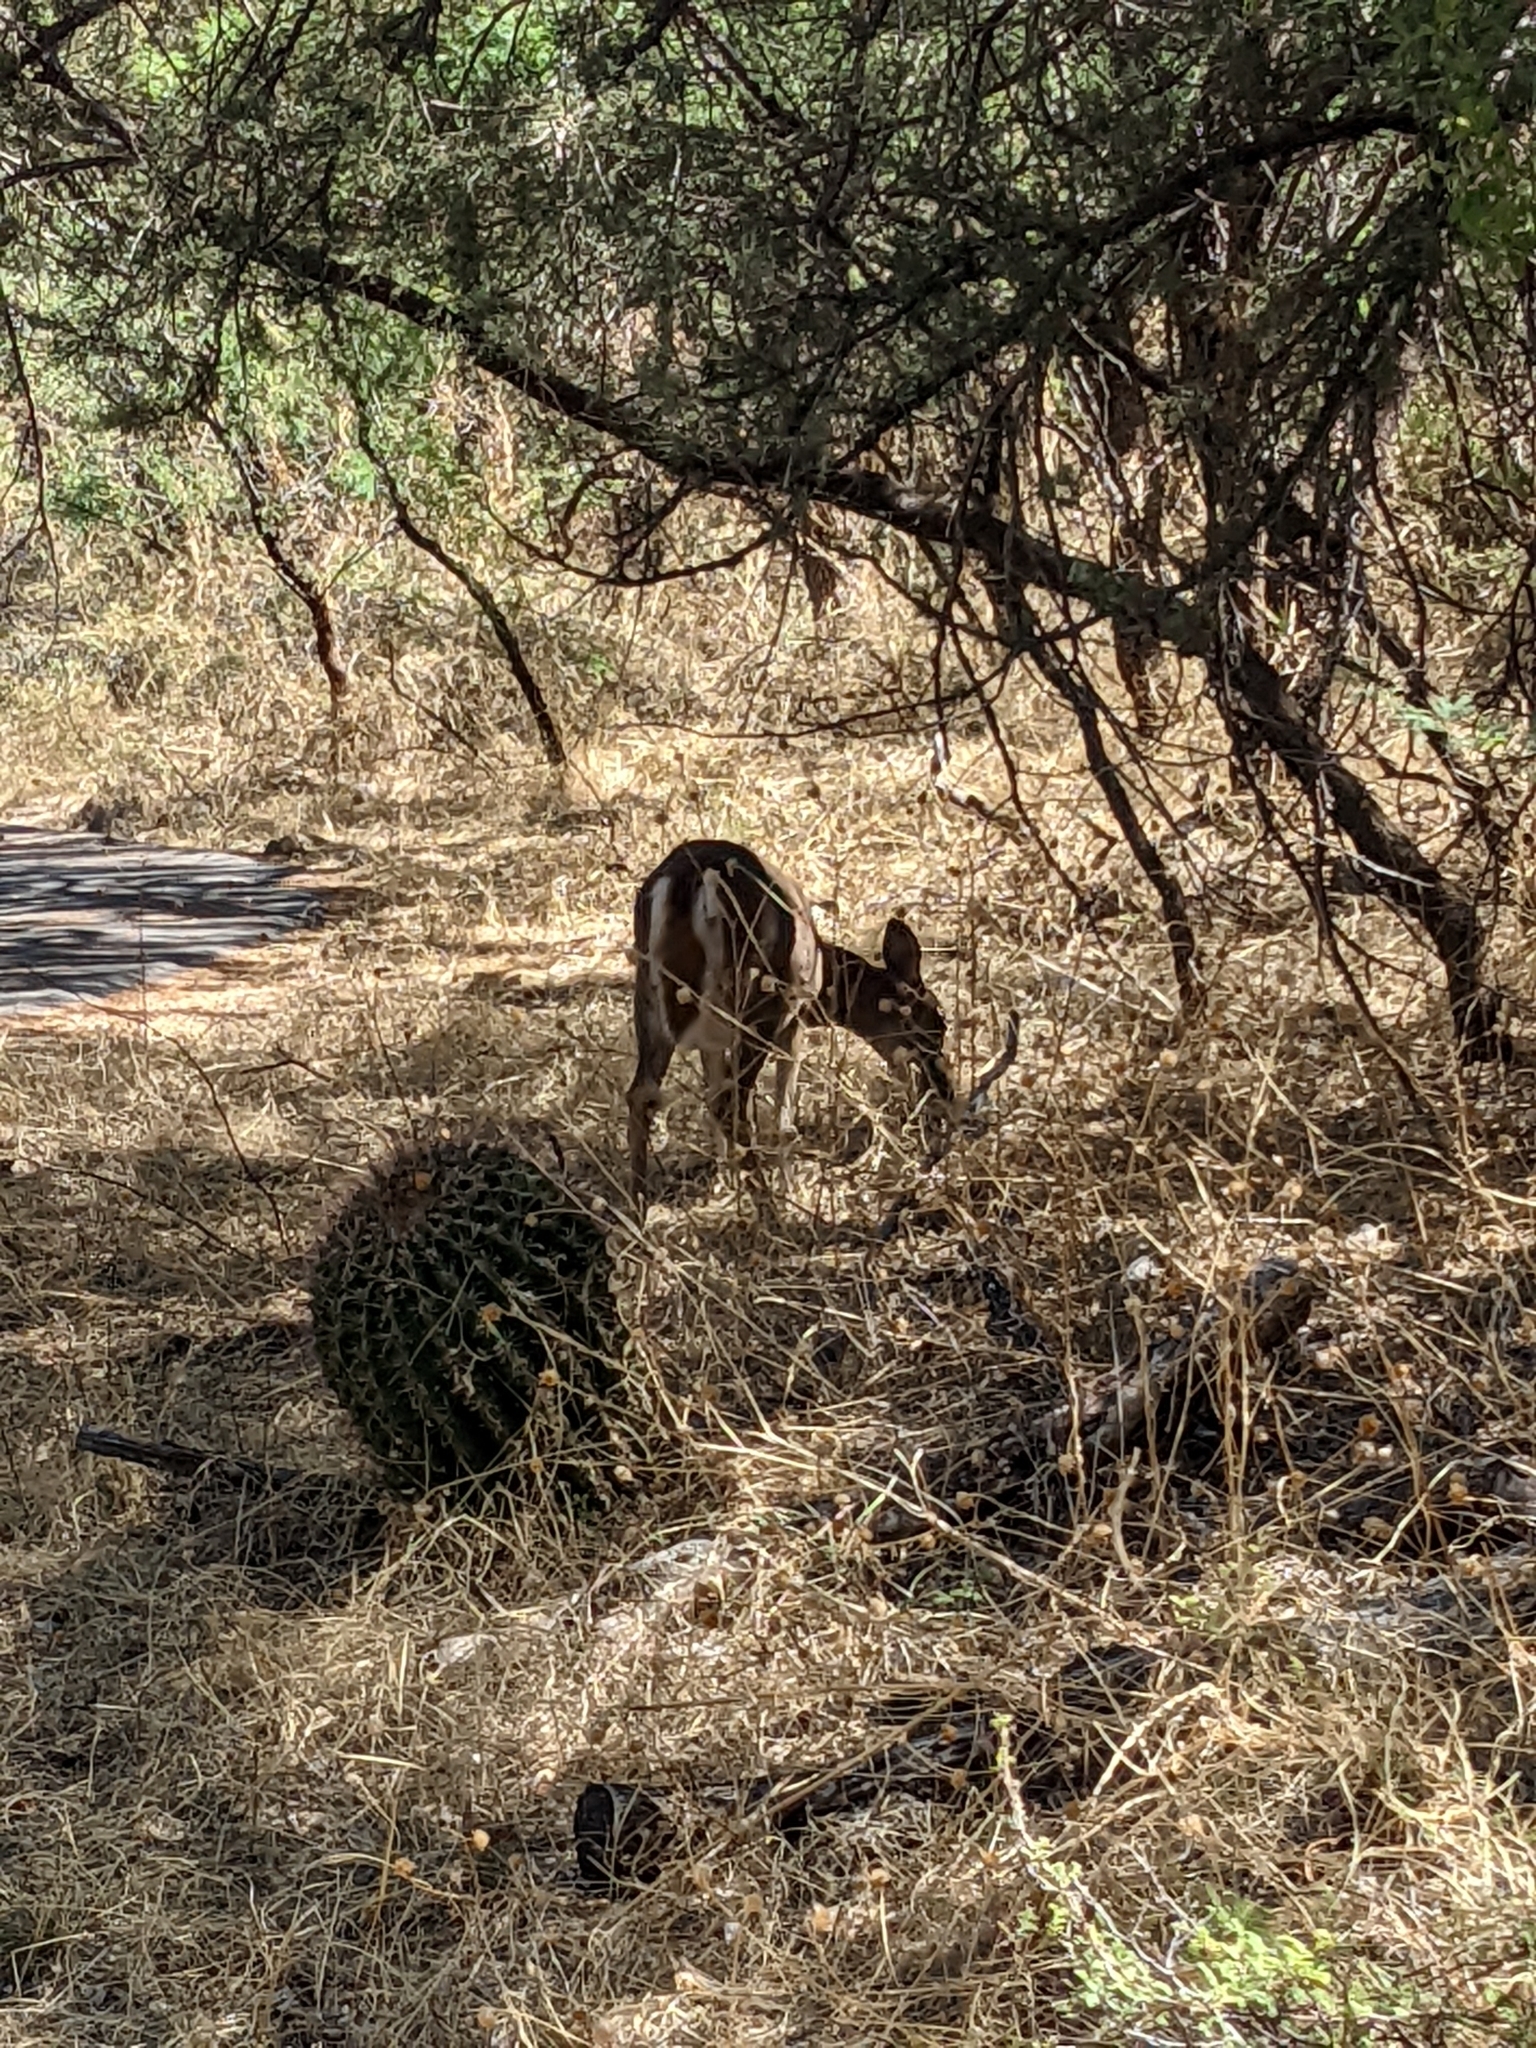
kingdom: Animalia
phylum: Chordata
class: Mammalia
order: Artiodactyla
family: Cervidae
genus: Odocoileus
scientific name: Odocoileus virginianus
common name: White-tailed deer
